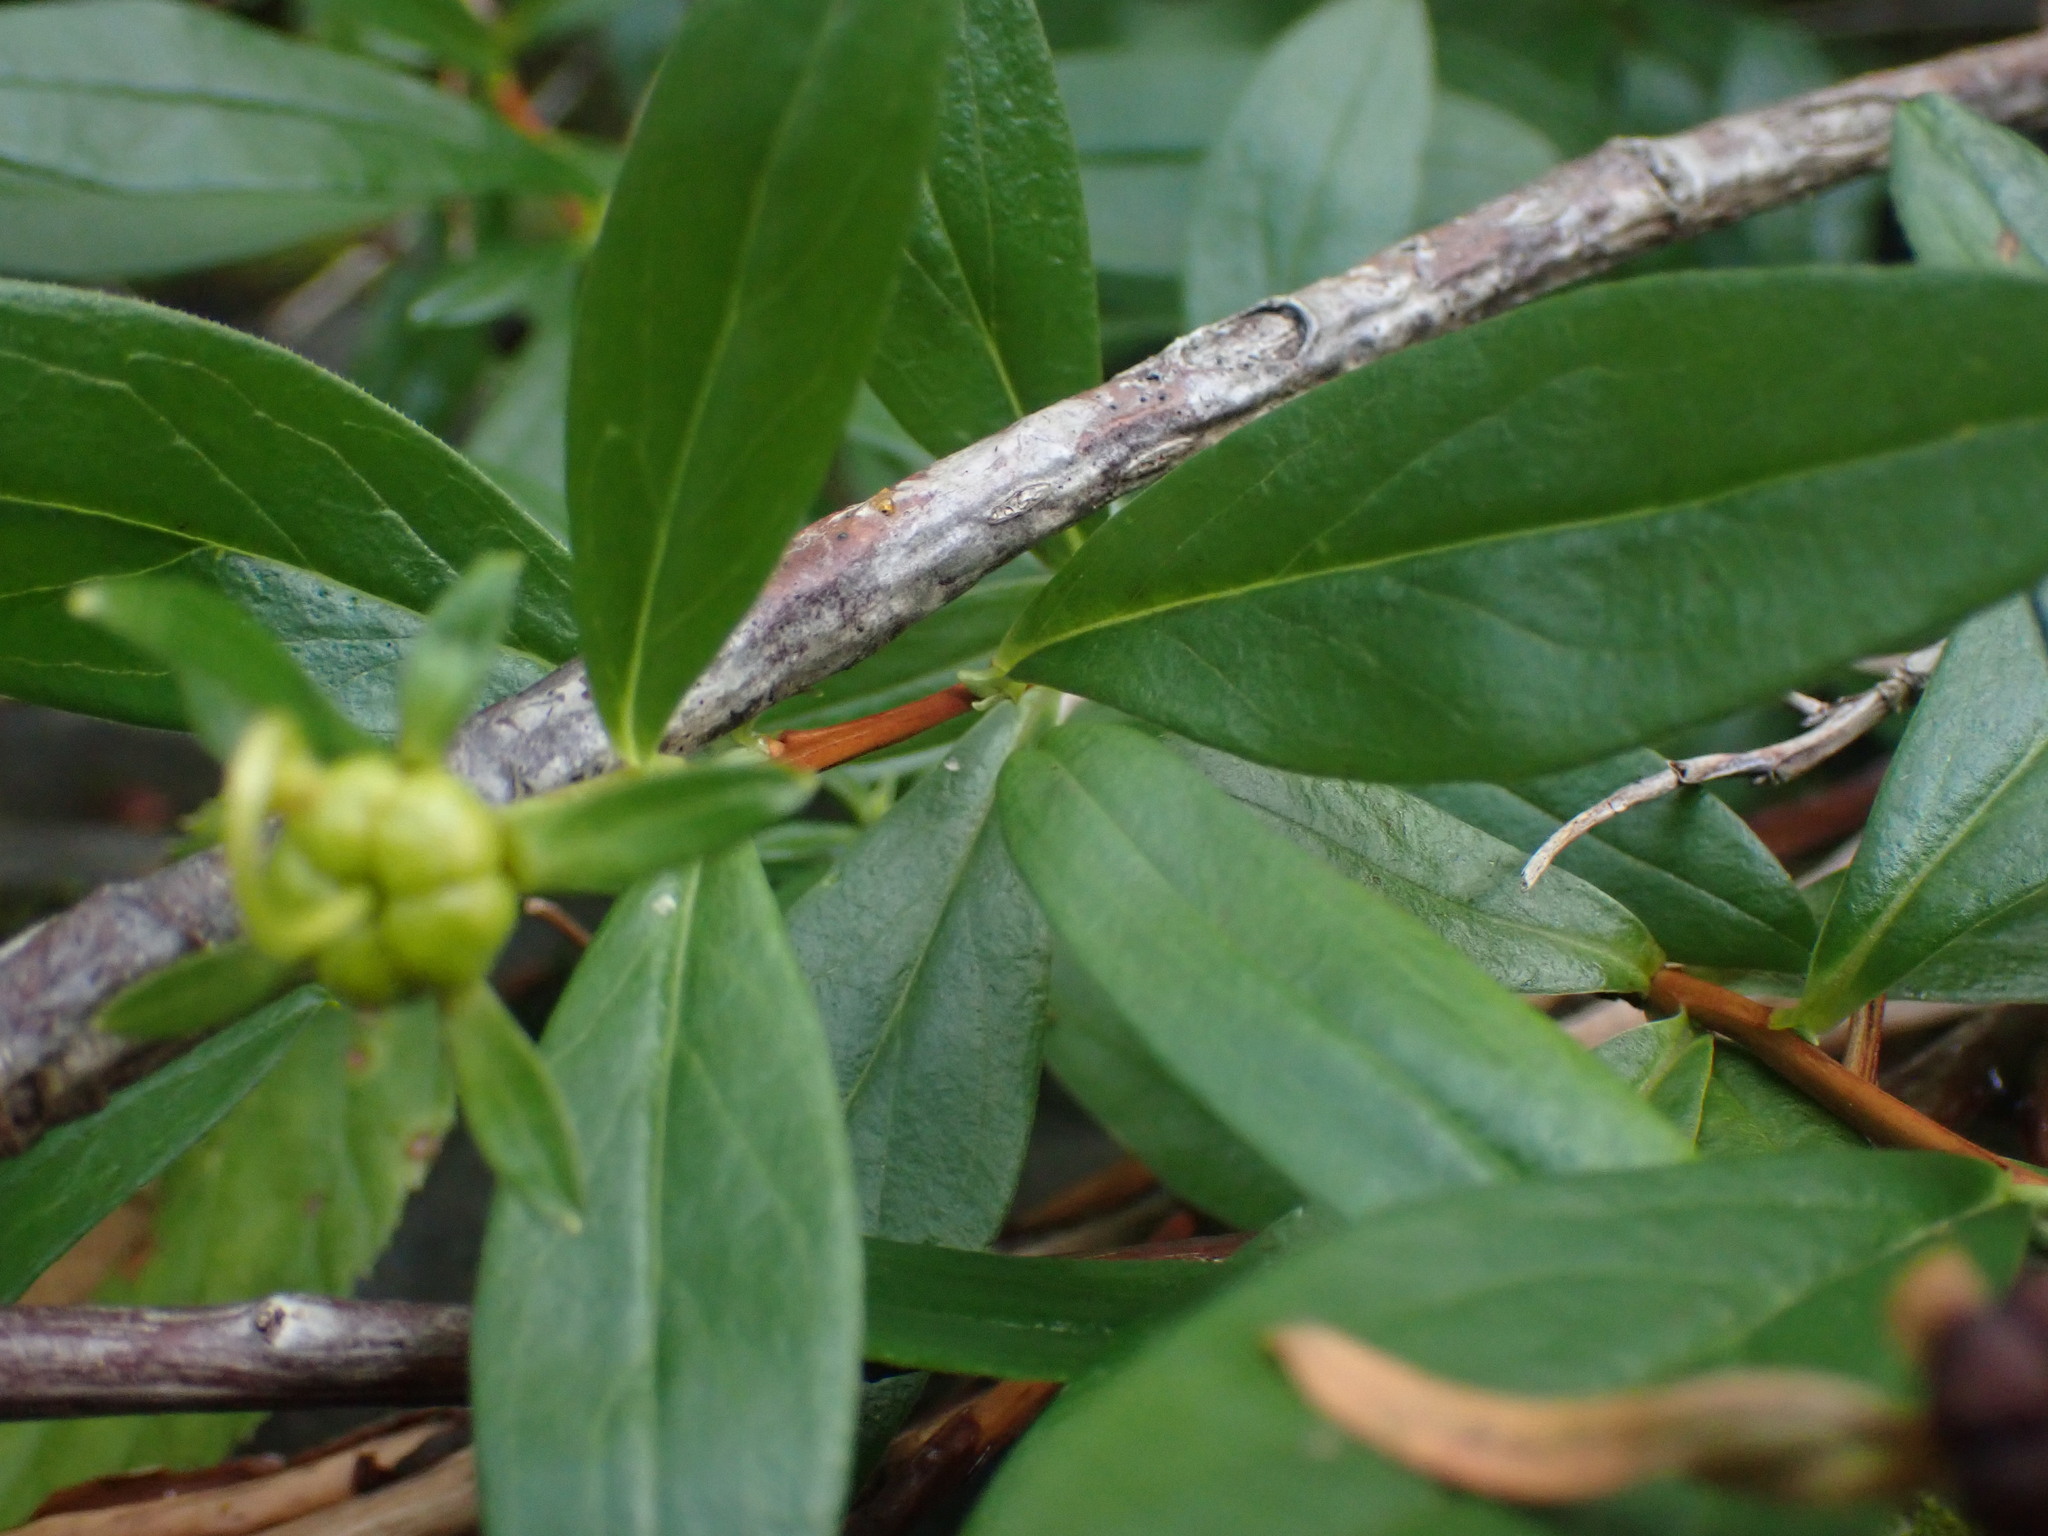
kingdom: Plantae
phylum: Tracheophyta
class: Magnoliopsida
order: Ericales
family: Ericaceae
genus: Elliottia
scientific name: Elliottia pyroliflora
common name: Copperbush
